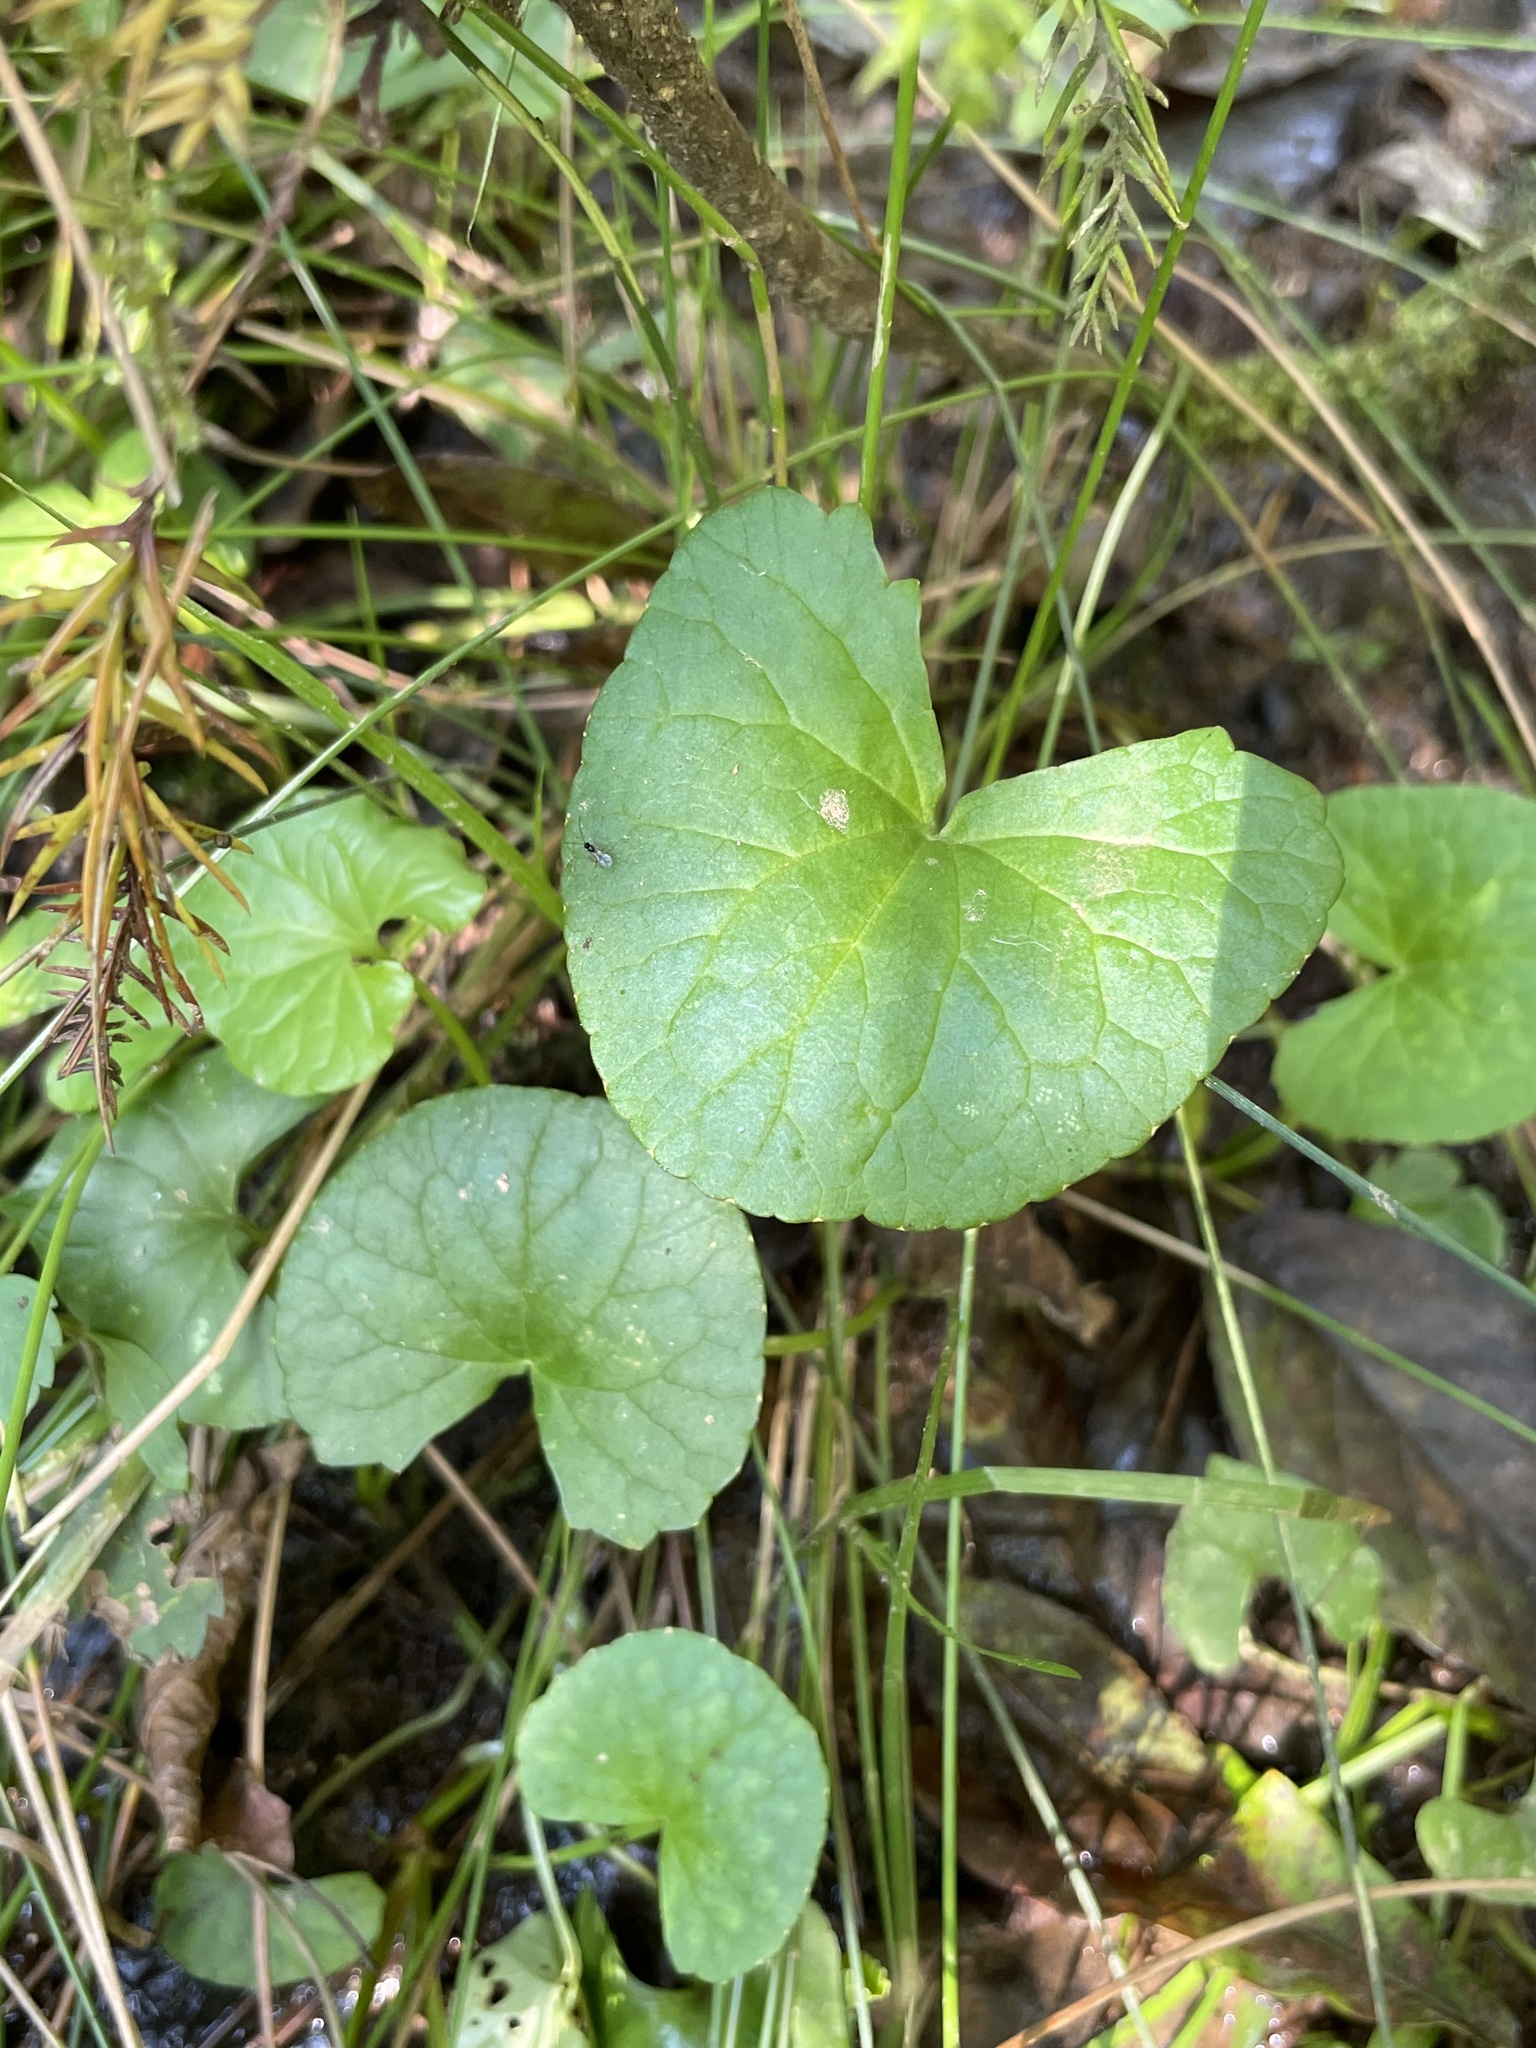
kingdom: Plantae
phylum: Tracheophyta
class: Magnoliopsida
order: Apiales
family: Apiaceae
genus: Centella
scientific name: Centella asiatica
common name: Spadeleaf
